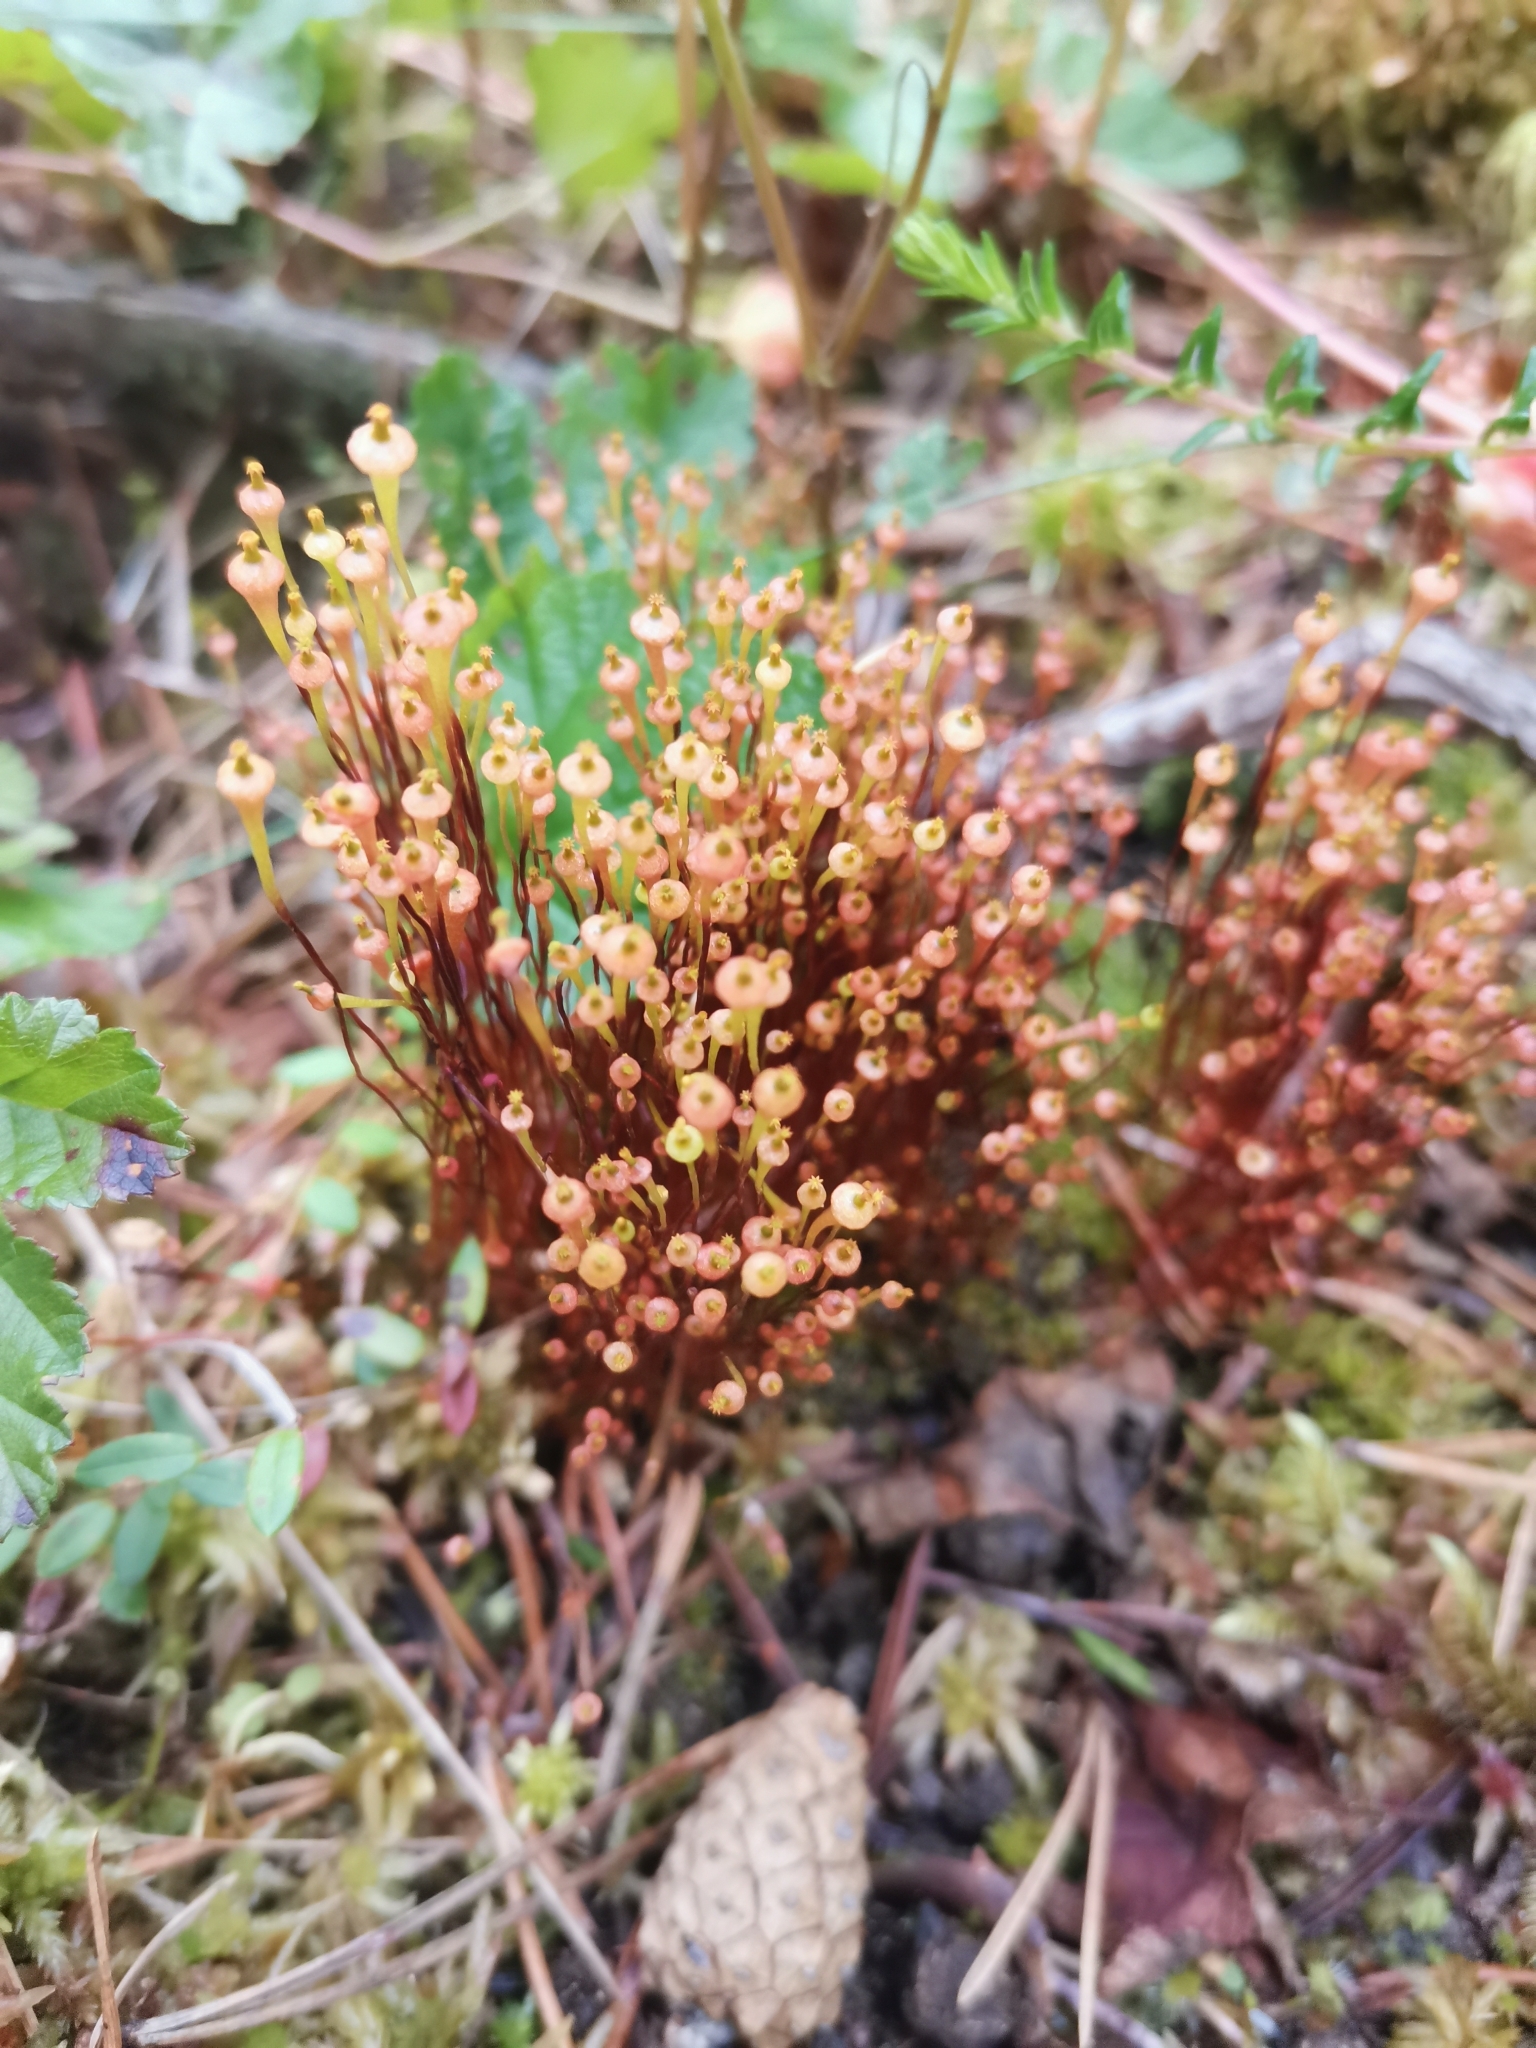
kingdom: Plantae
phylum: Bryophyta
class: Bryopsida
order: Splachnales
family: Splachnaceae
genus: Splachnum
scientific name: Splachnum ampullaceum
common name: Cruet dung moss
